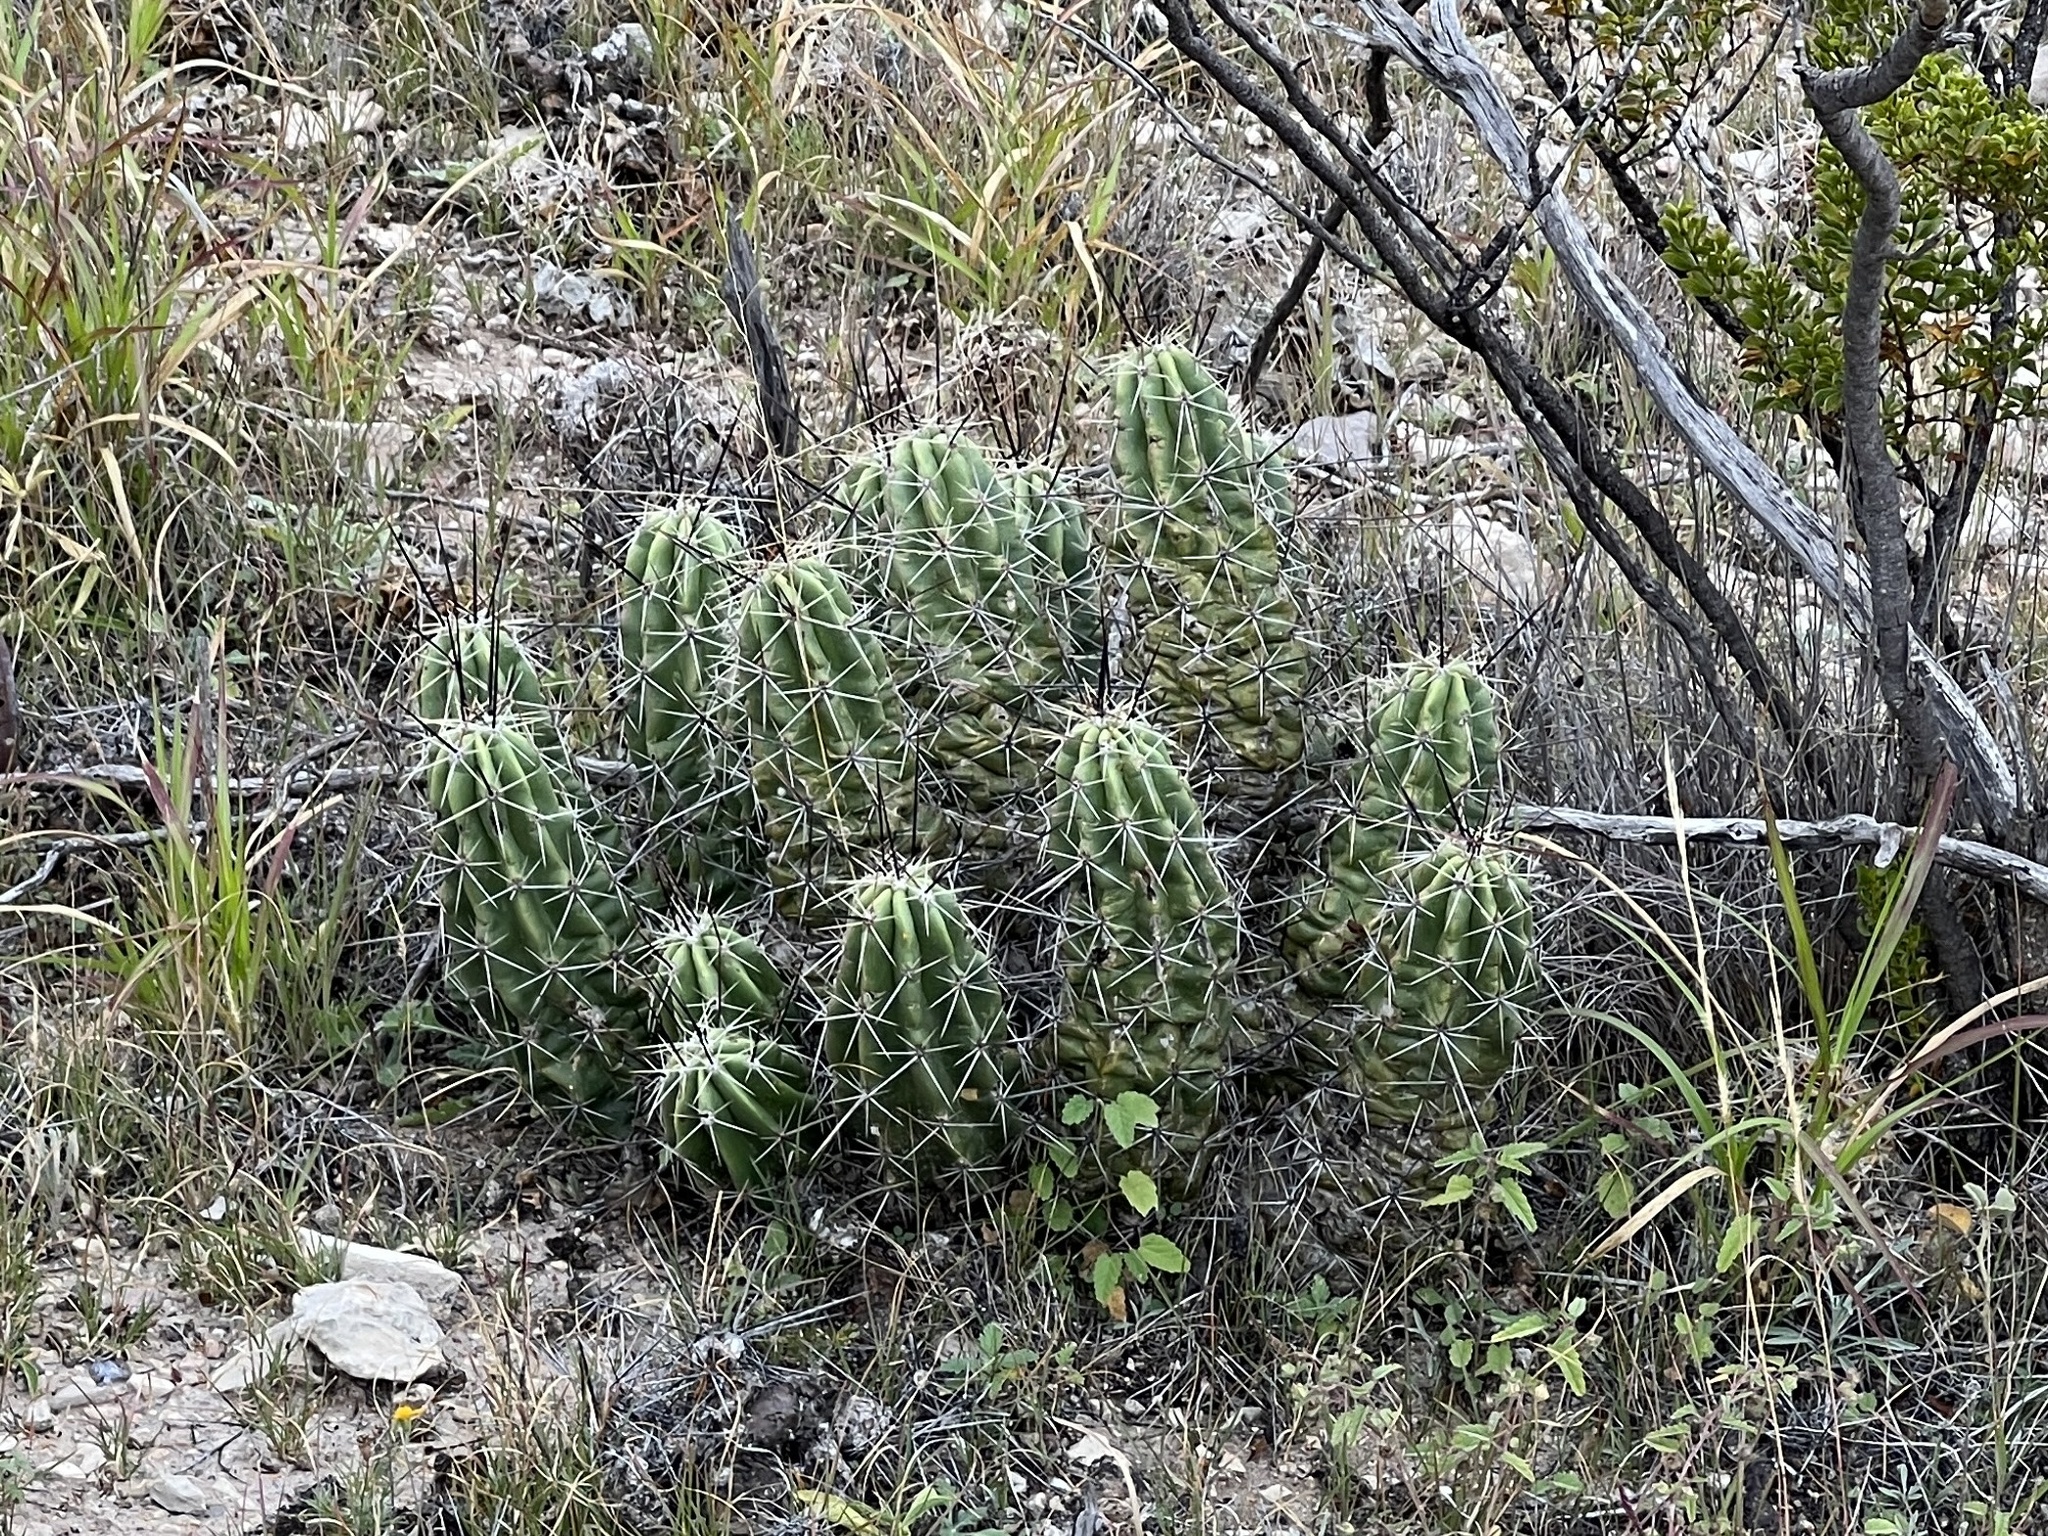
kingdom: Plantae
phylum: Tracheophyta
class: Magnoliopsida
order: Caryophyllales
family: Cactaceae
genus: Echinocereus
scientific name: Echinocereus enneacanthus
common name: Pitaya
